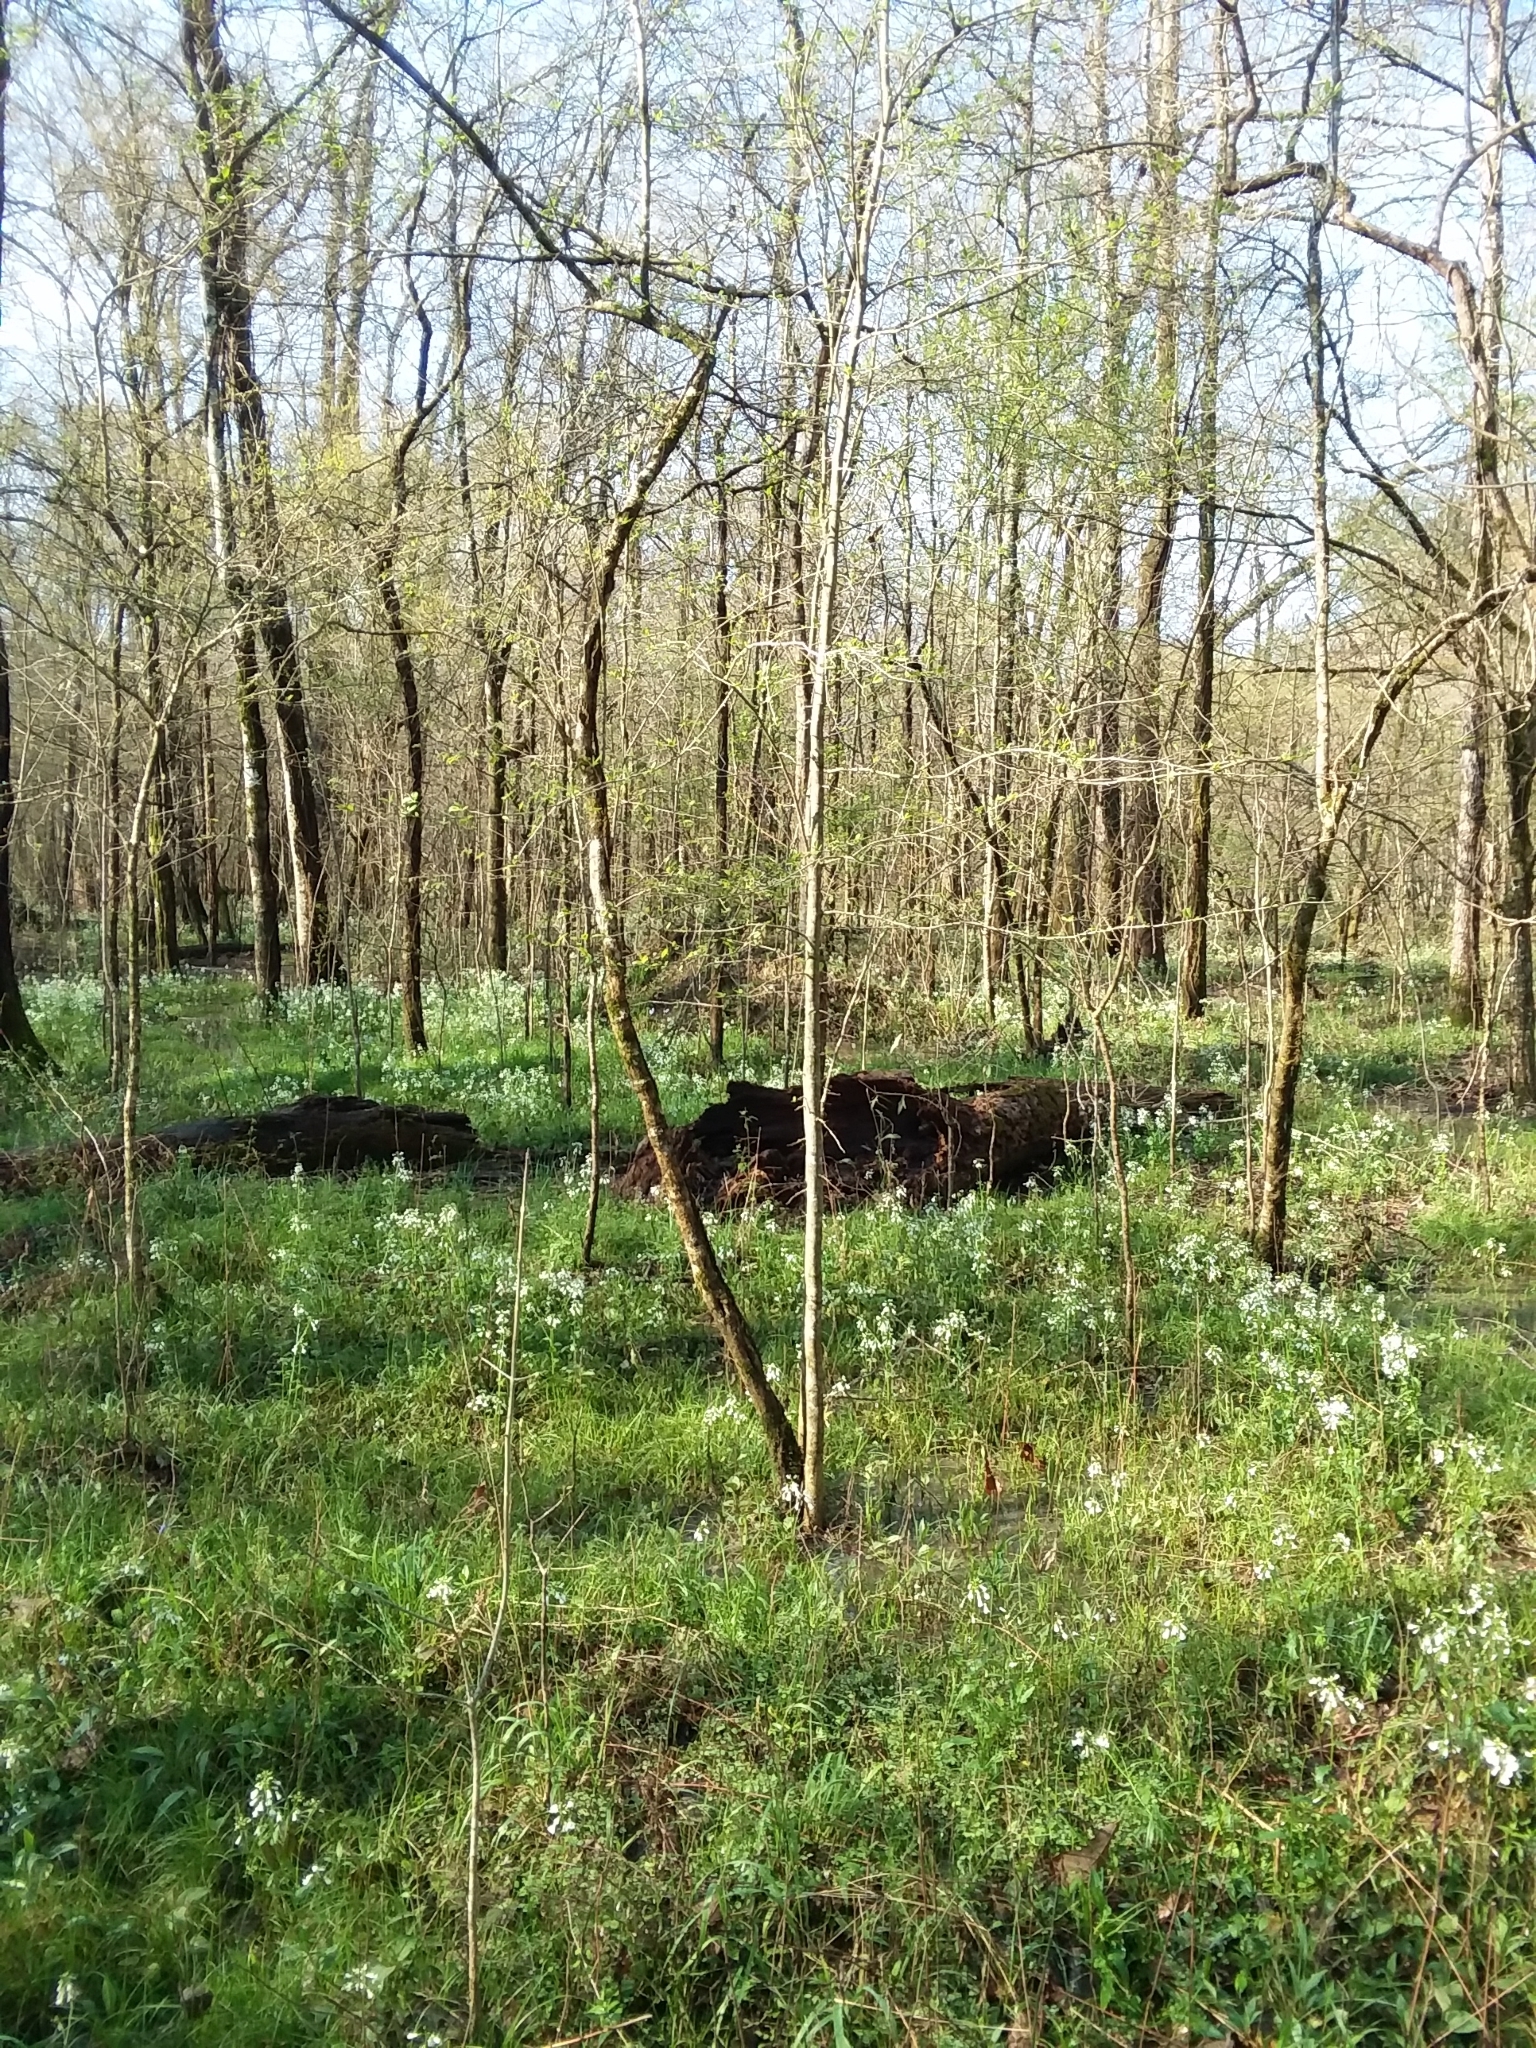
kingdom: Plantae
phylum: Tracheophyta
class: Magnoliopsida
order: Brassicales
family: Brassicaceae
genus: Cardamine
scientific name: Cardamine bulbosa
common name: Spring cress
